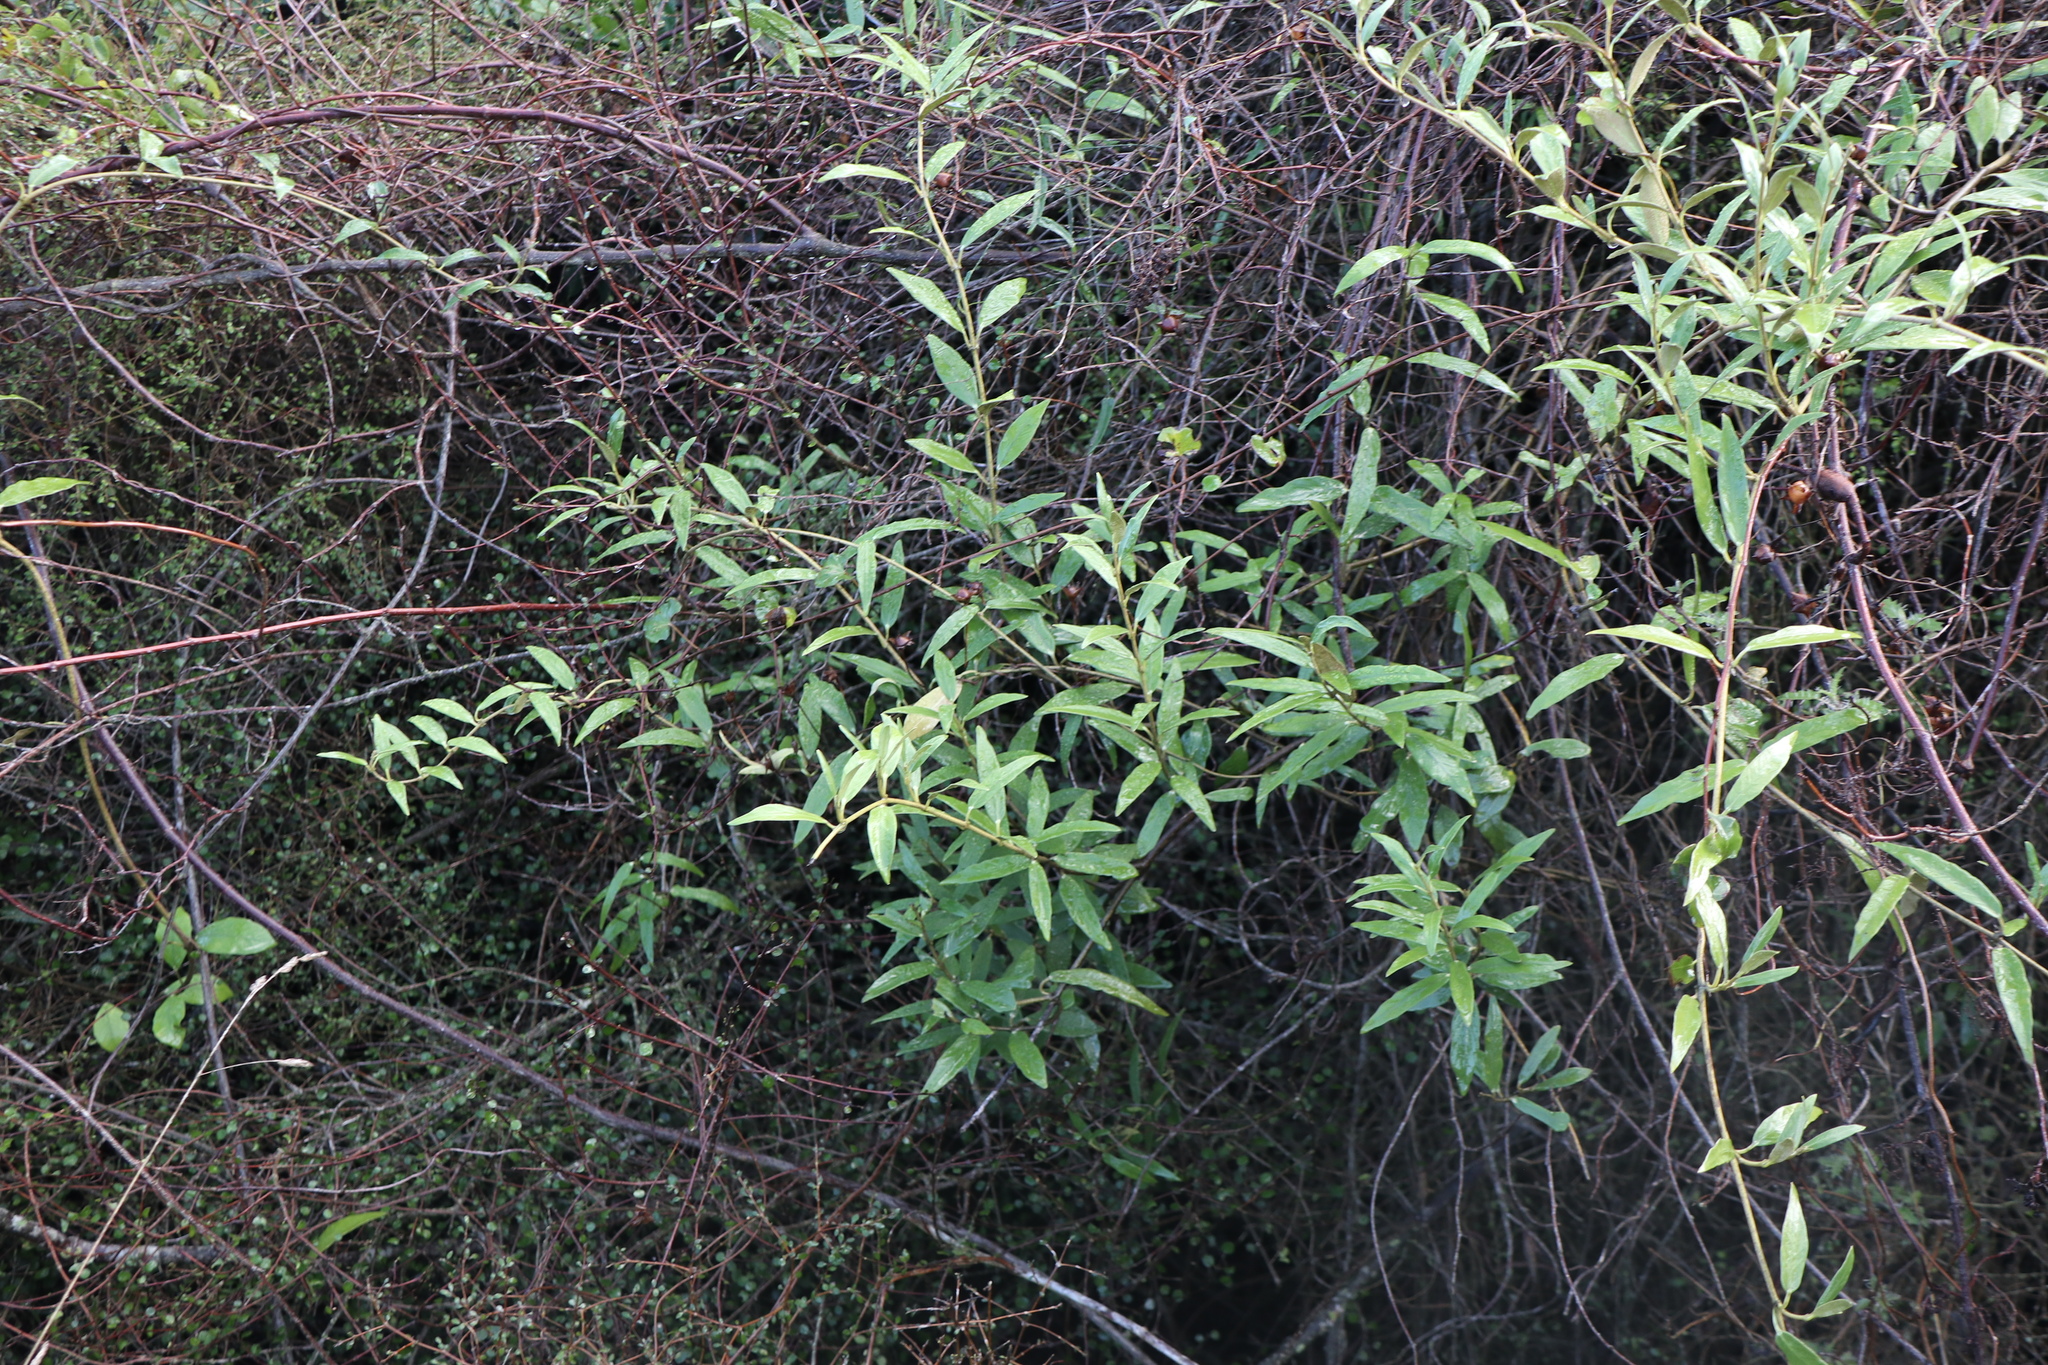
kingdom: Plantae
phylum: Tracheophyta
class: Magnoliopsida
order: Gentianales
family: Apocynaceae
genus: Parsonsia
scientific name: Parsonsia heterophylla
